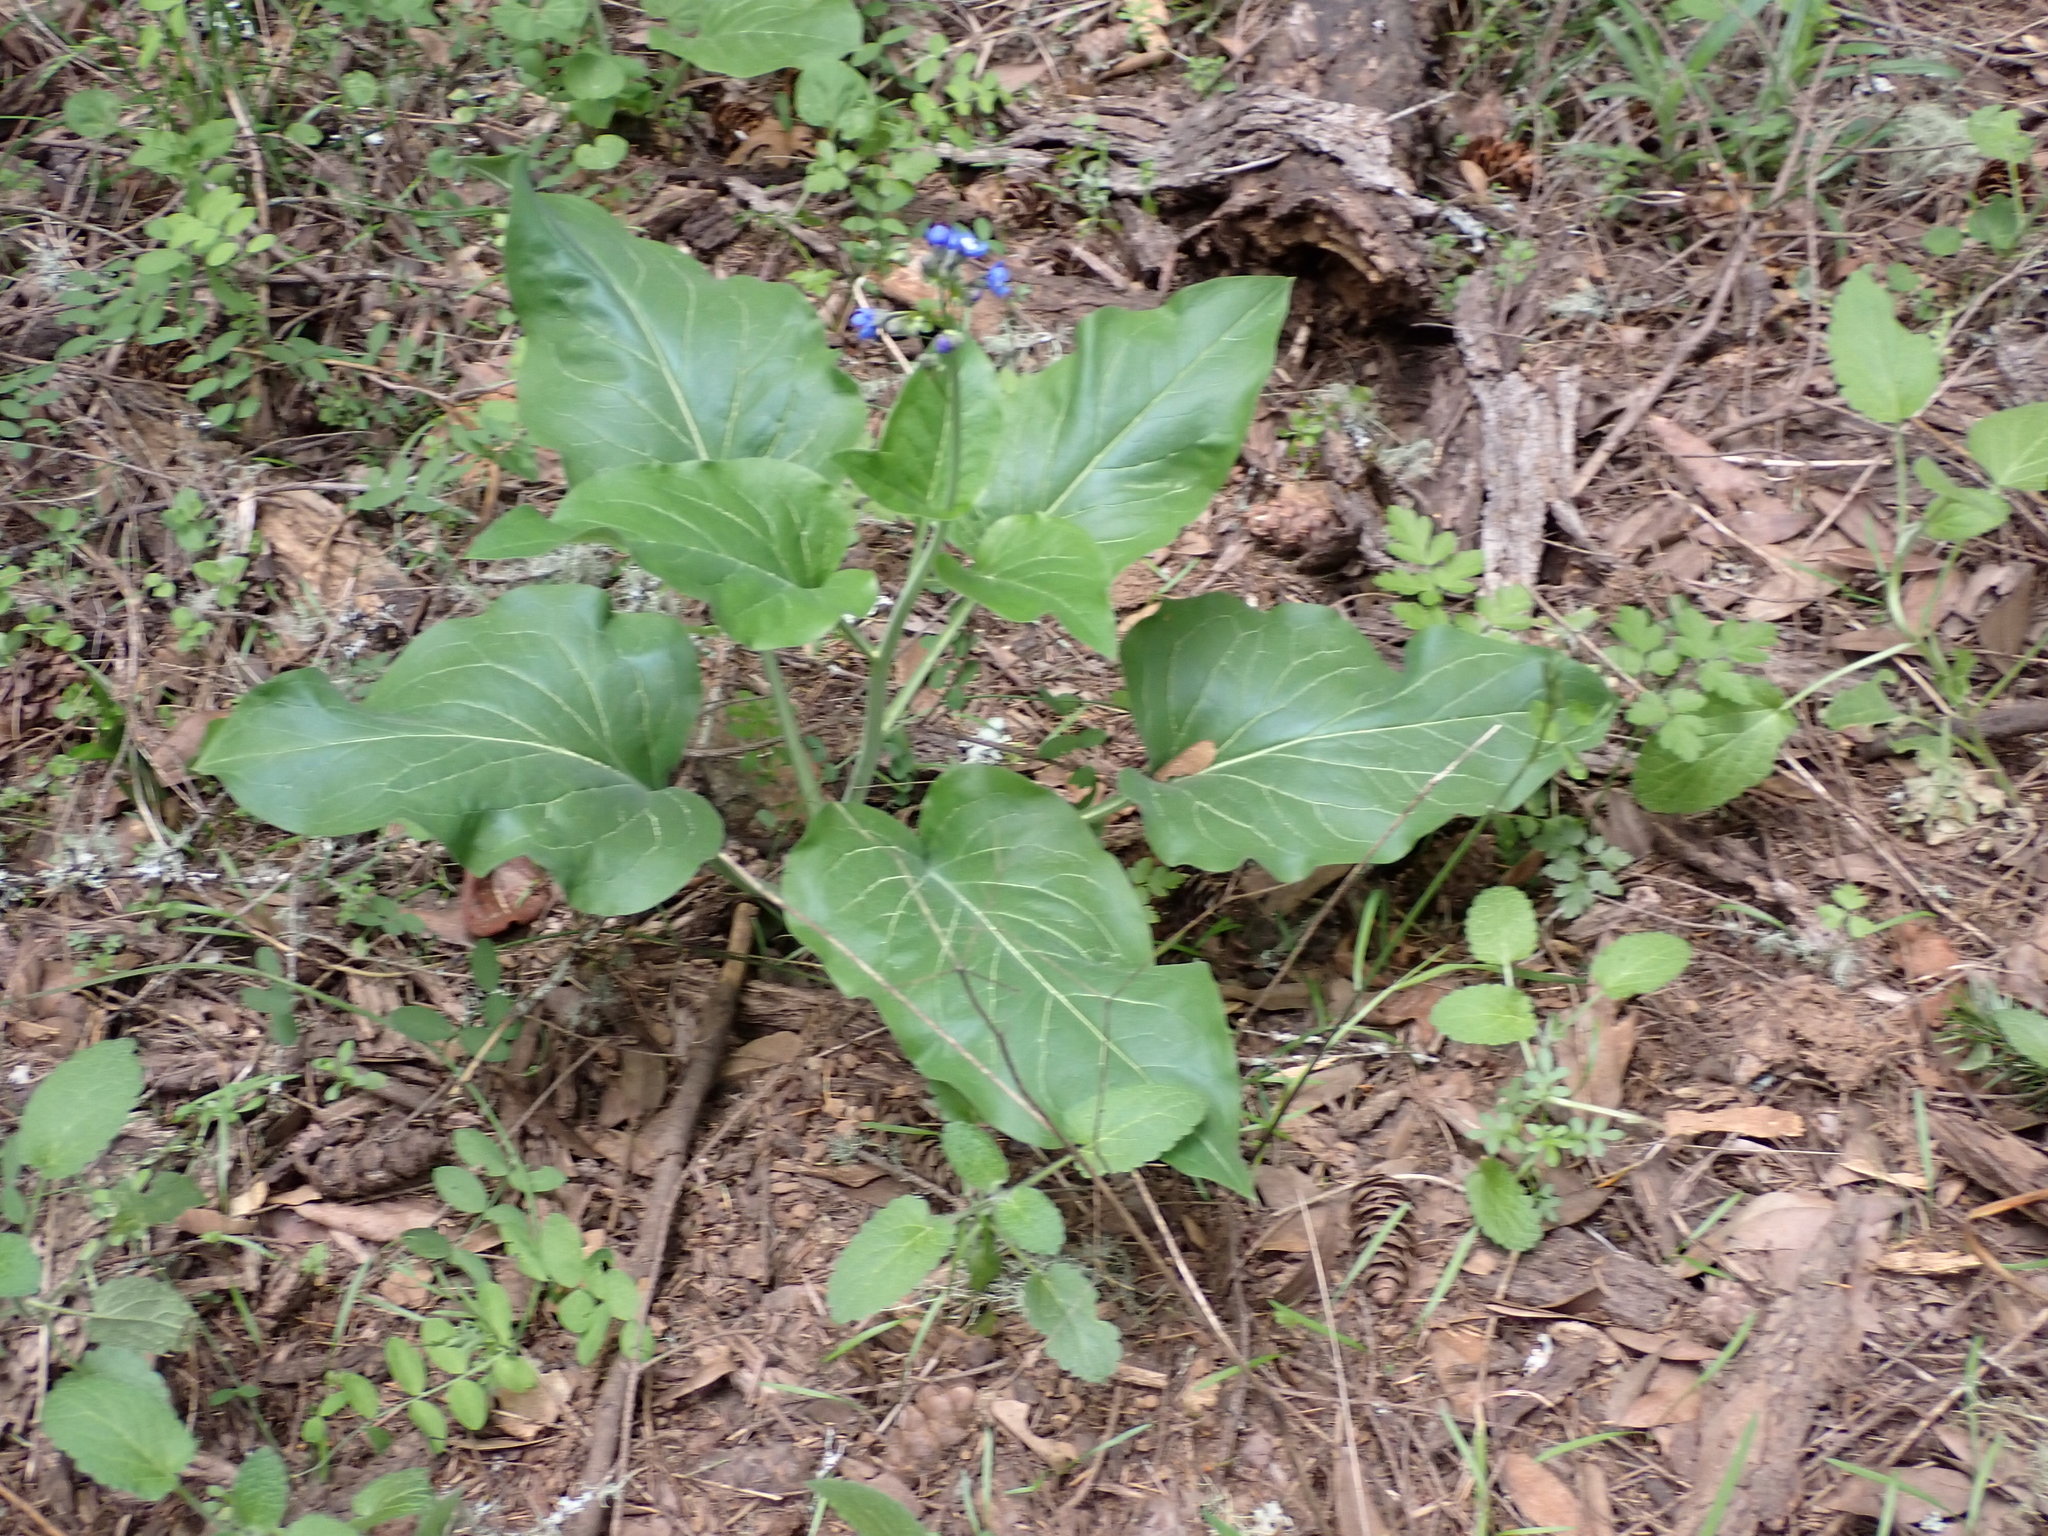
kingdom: Plantae
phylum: Tracheophyta
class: Magnoliopsida
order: Boraginales
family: Boraginaceae
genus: Adelinia
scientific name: Adelinia grande
